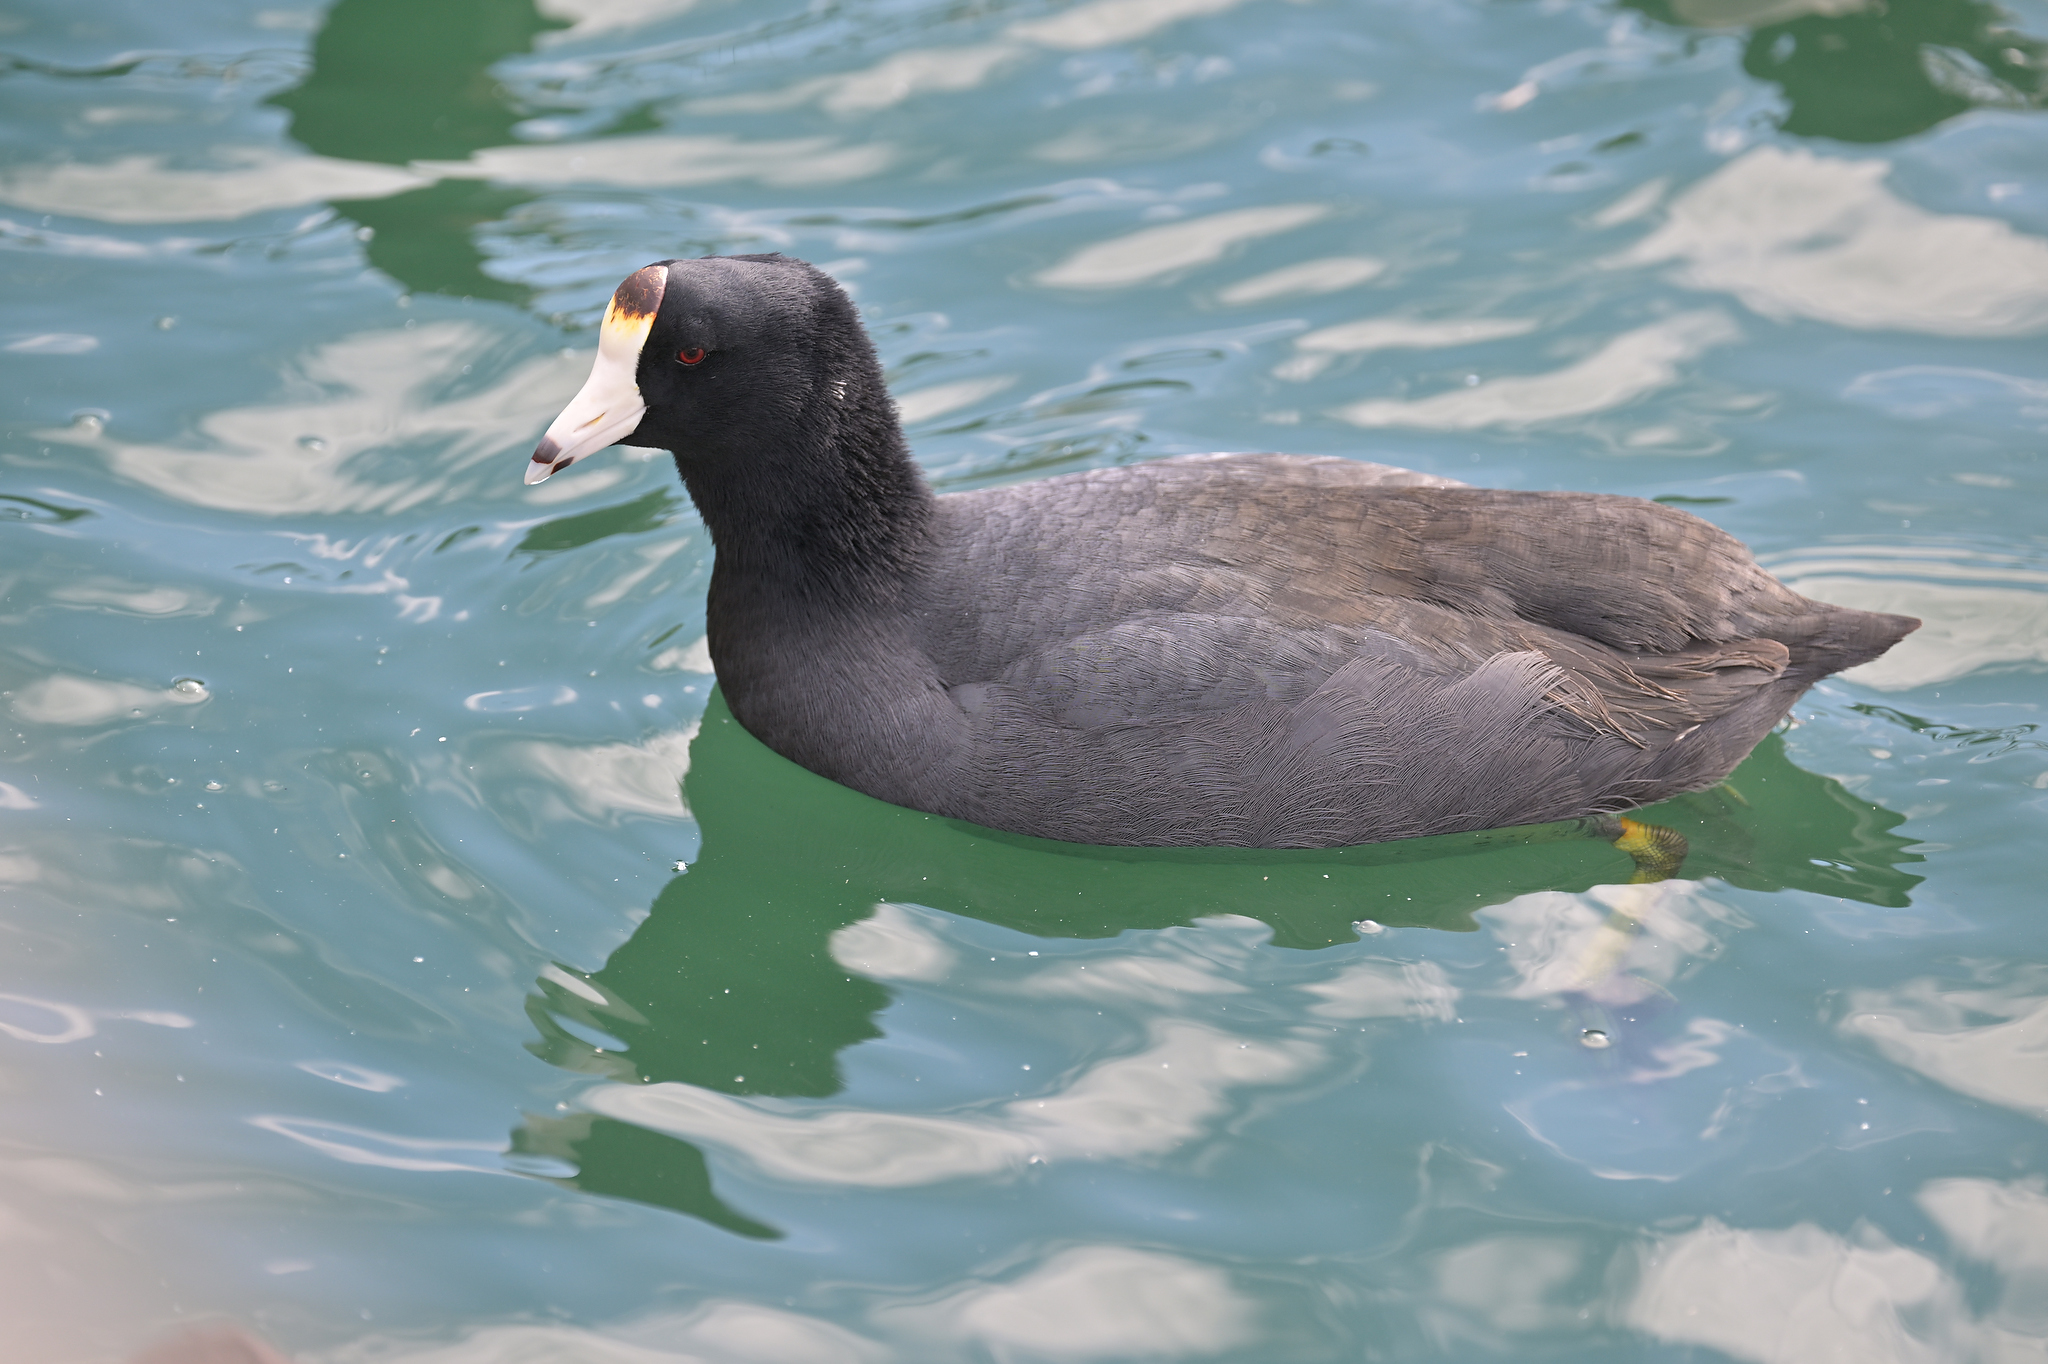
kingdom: Animalia
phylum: Chordata
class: Aves
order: Gruiformes
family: Rallidae
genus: Fulica
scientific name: Fulica americana
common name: American coot
